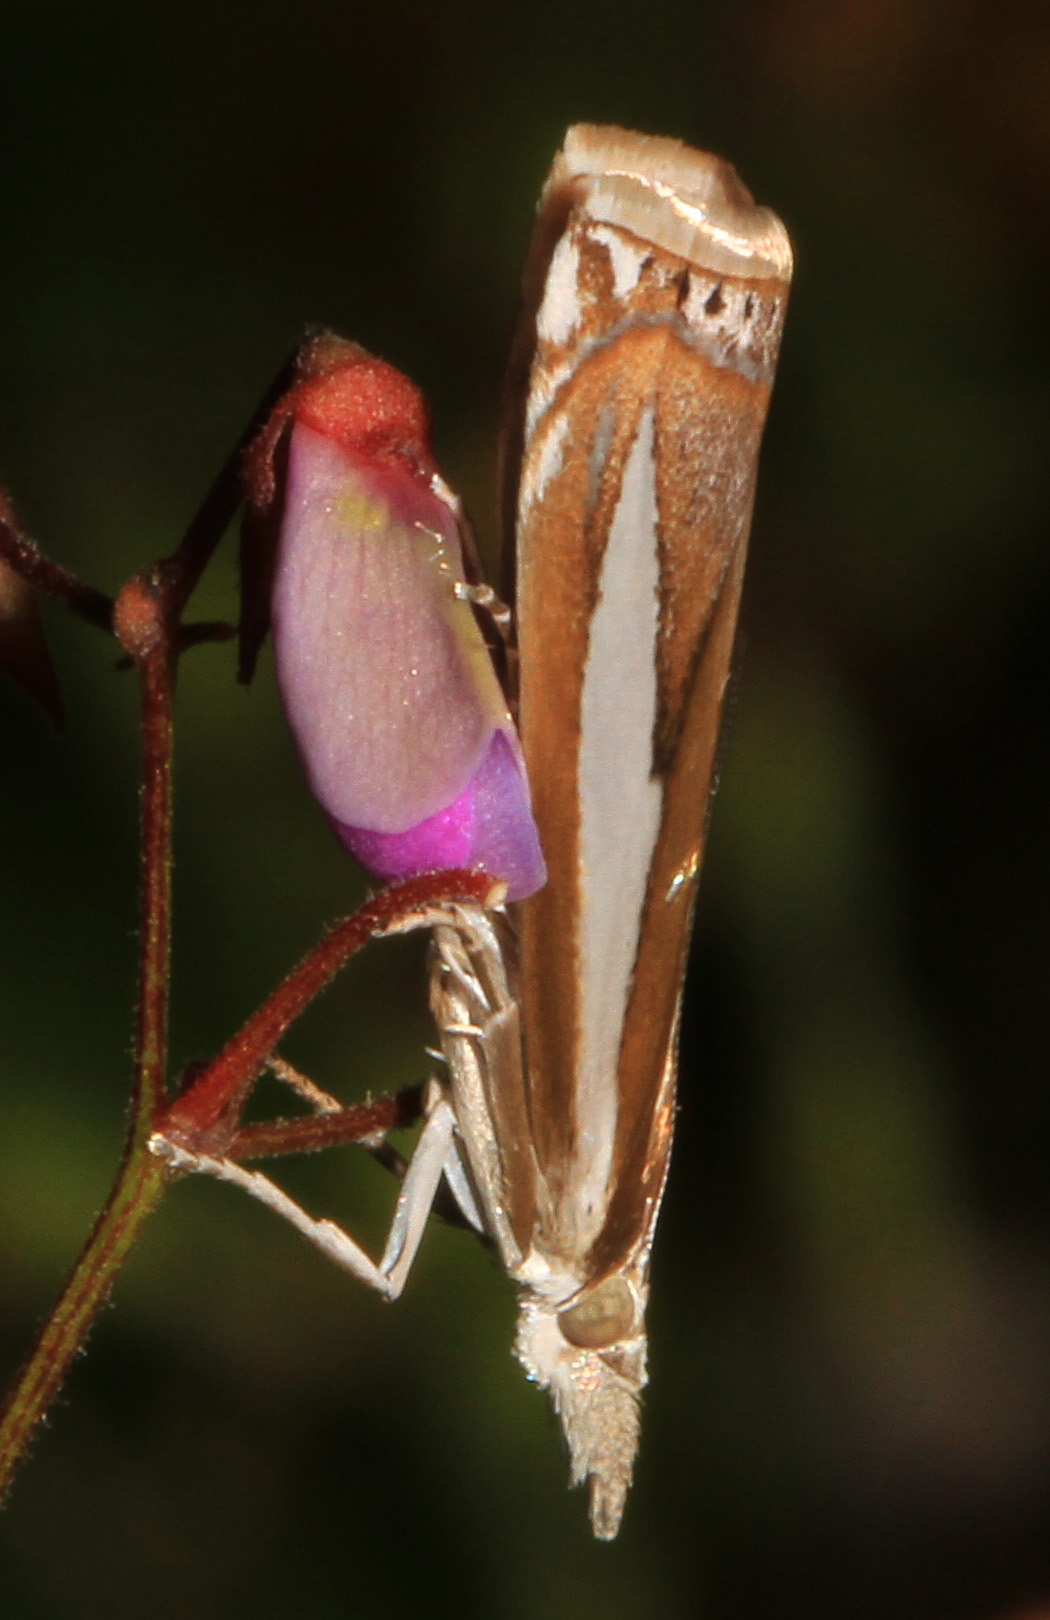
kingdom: Animalia
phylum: Arthropoda
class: Insecta
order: Lepidoptera
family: Crambidae
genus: Crambus
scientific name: Crambus praefectellus
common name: Common grass-veneer
